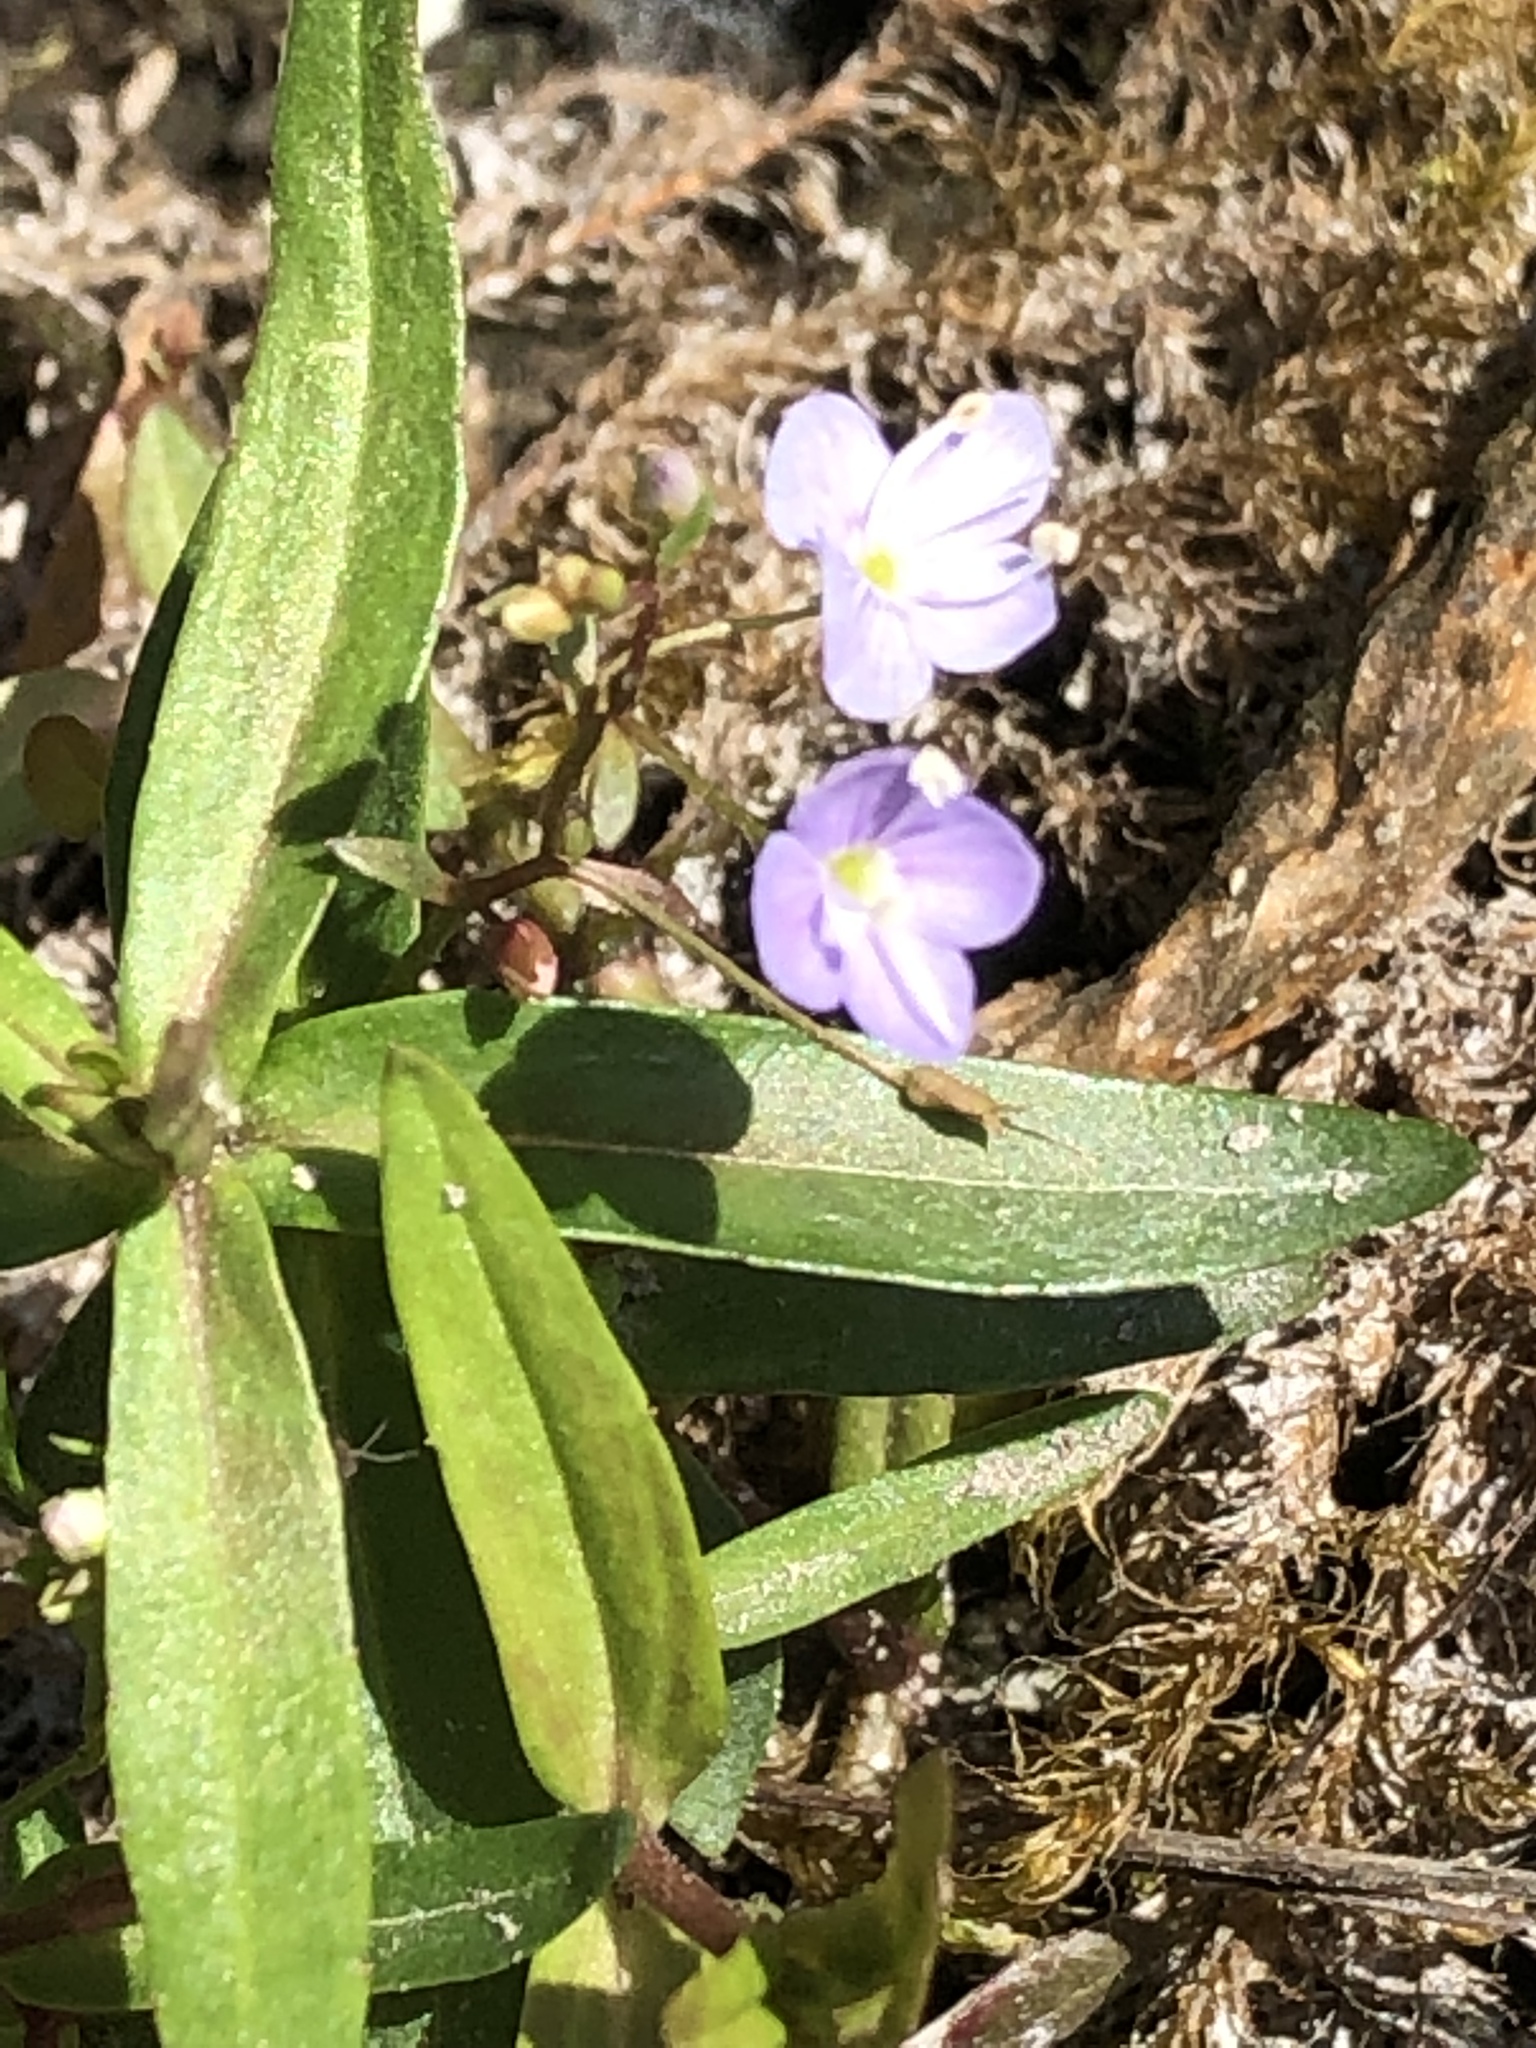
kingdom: Plantae
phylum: Tracheophyta
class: Magnoliopsida
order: Lamiales
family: Plantaginaceae
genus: Veronica
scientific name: Veronica scutellata
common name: Marsh speedwell
